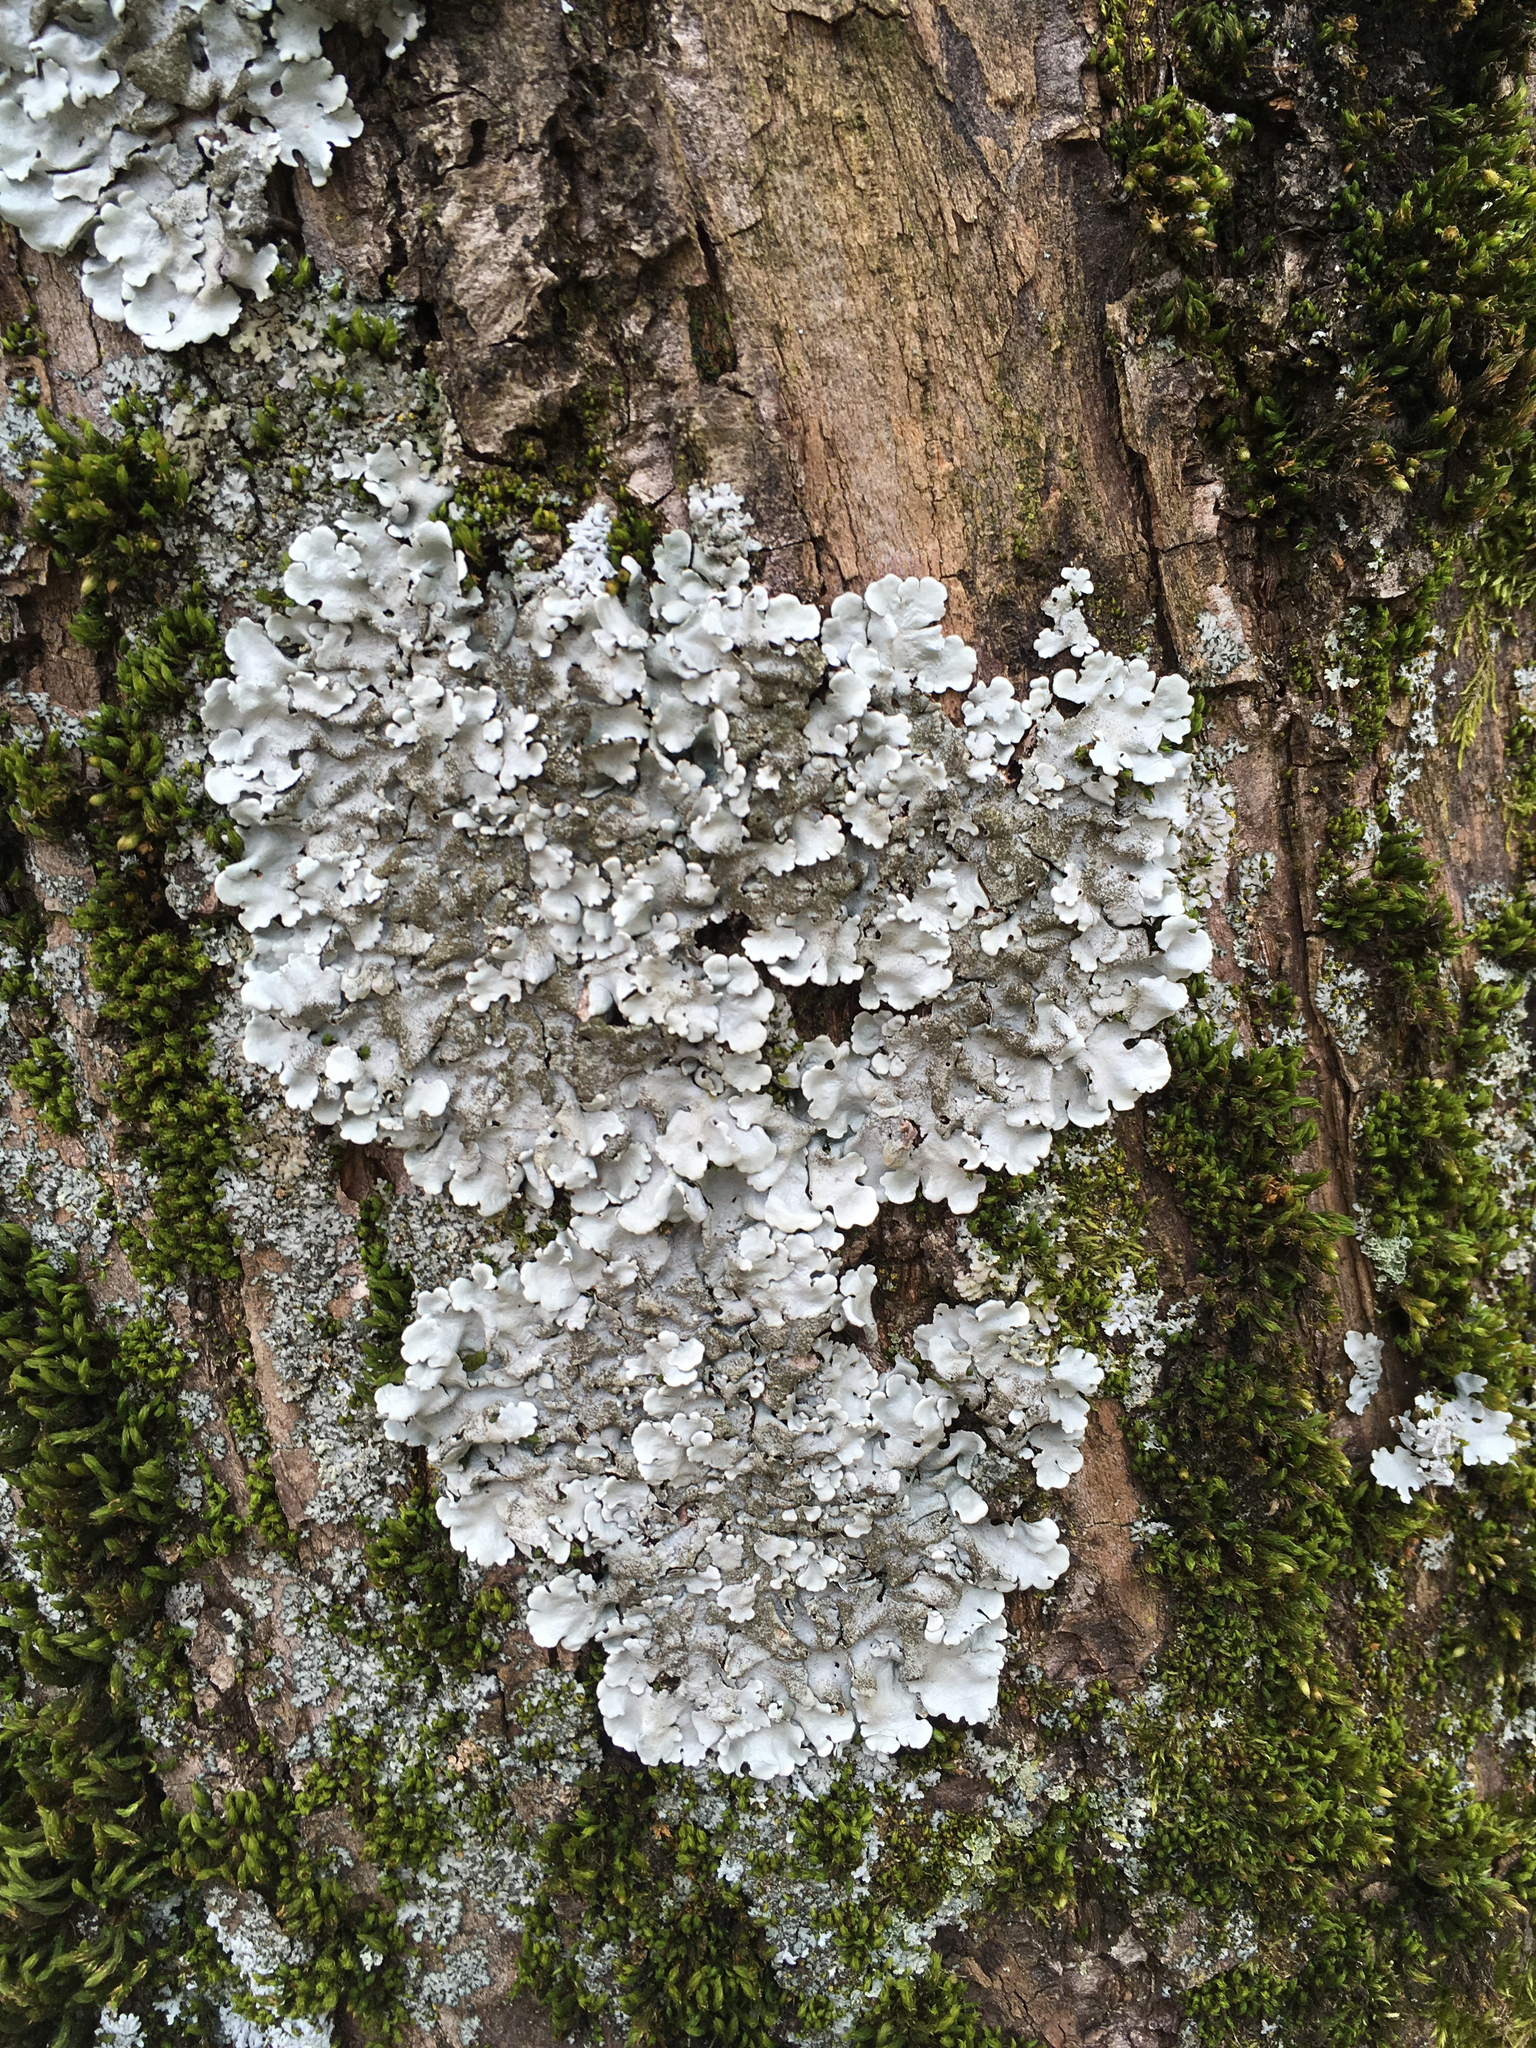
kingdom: Fungi
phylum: Ascomycota
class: Lecanoromycetes
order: Lecanorales
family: Parmeliaceae
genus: Parmelina
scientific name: Parmelina tiliacea
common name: Linden shield lichen
